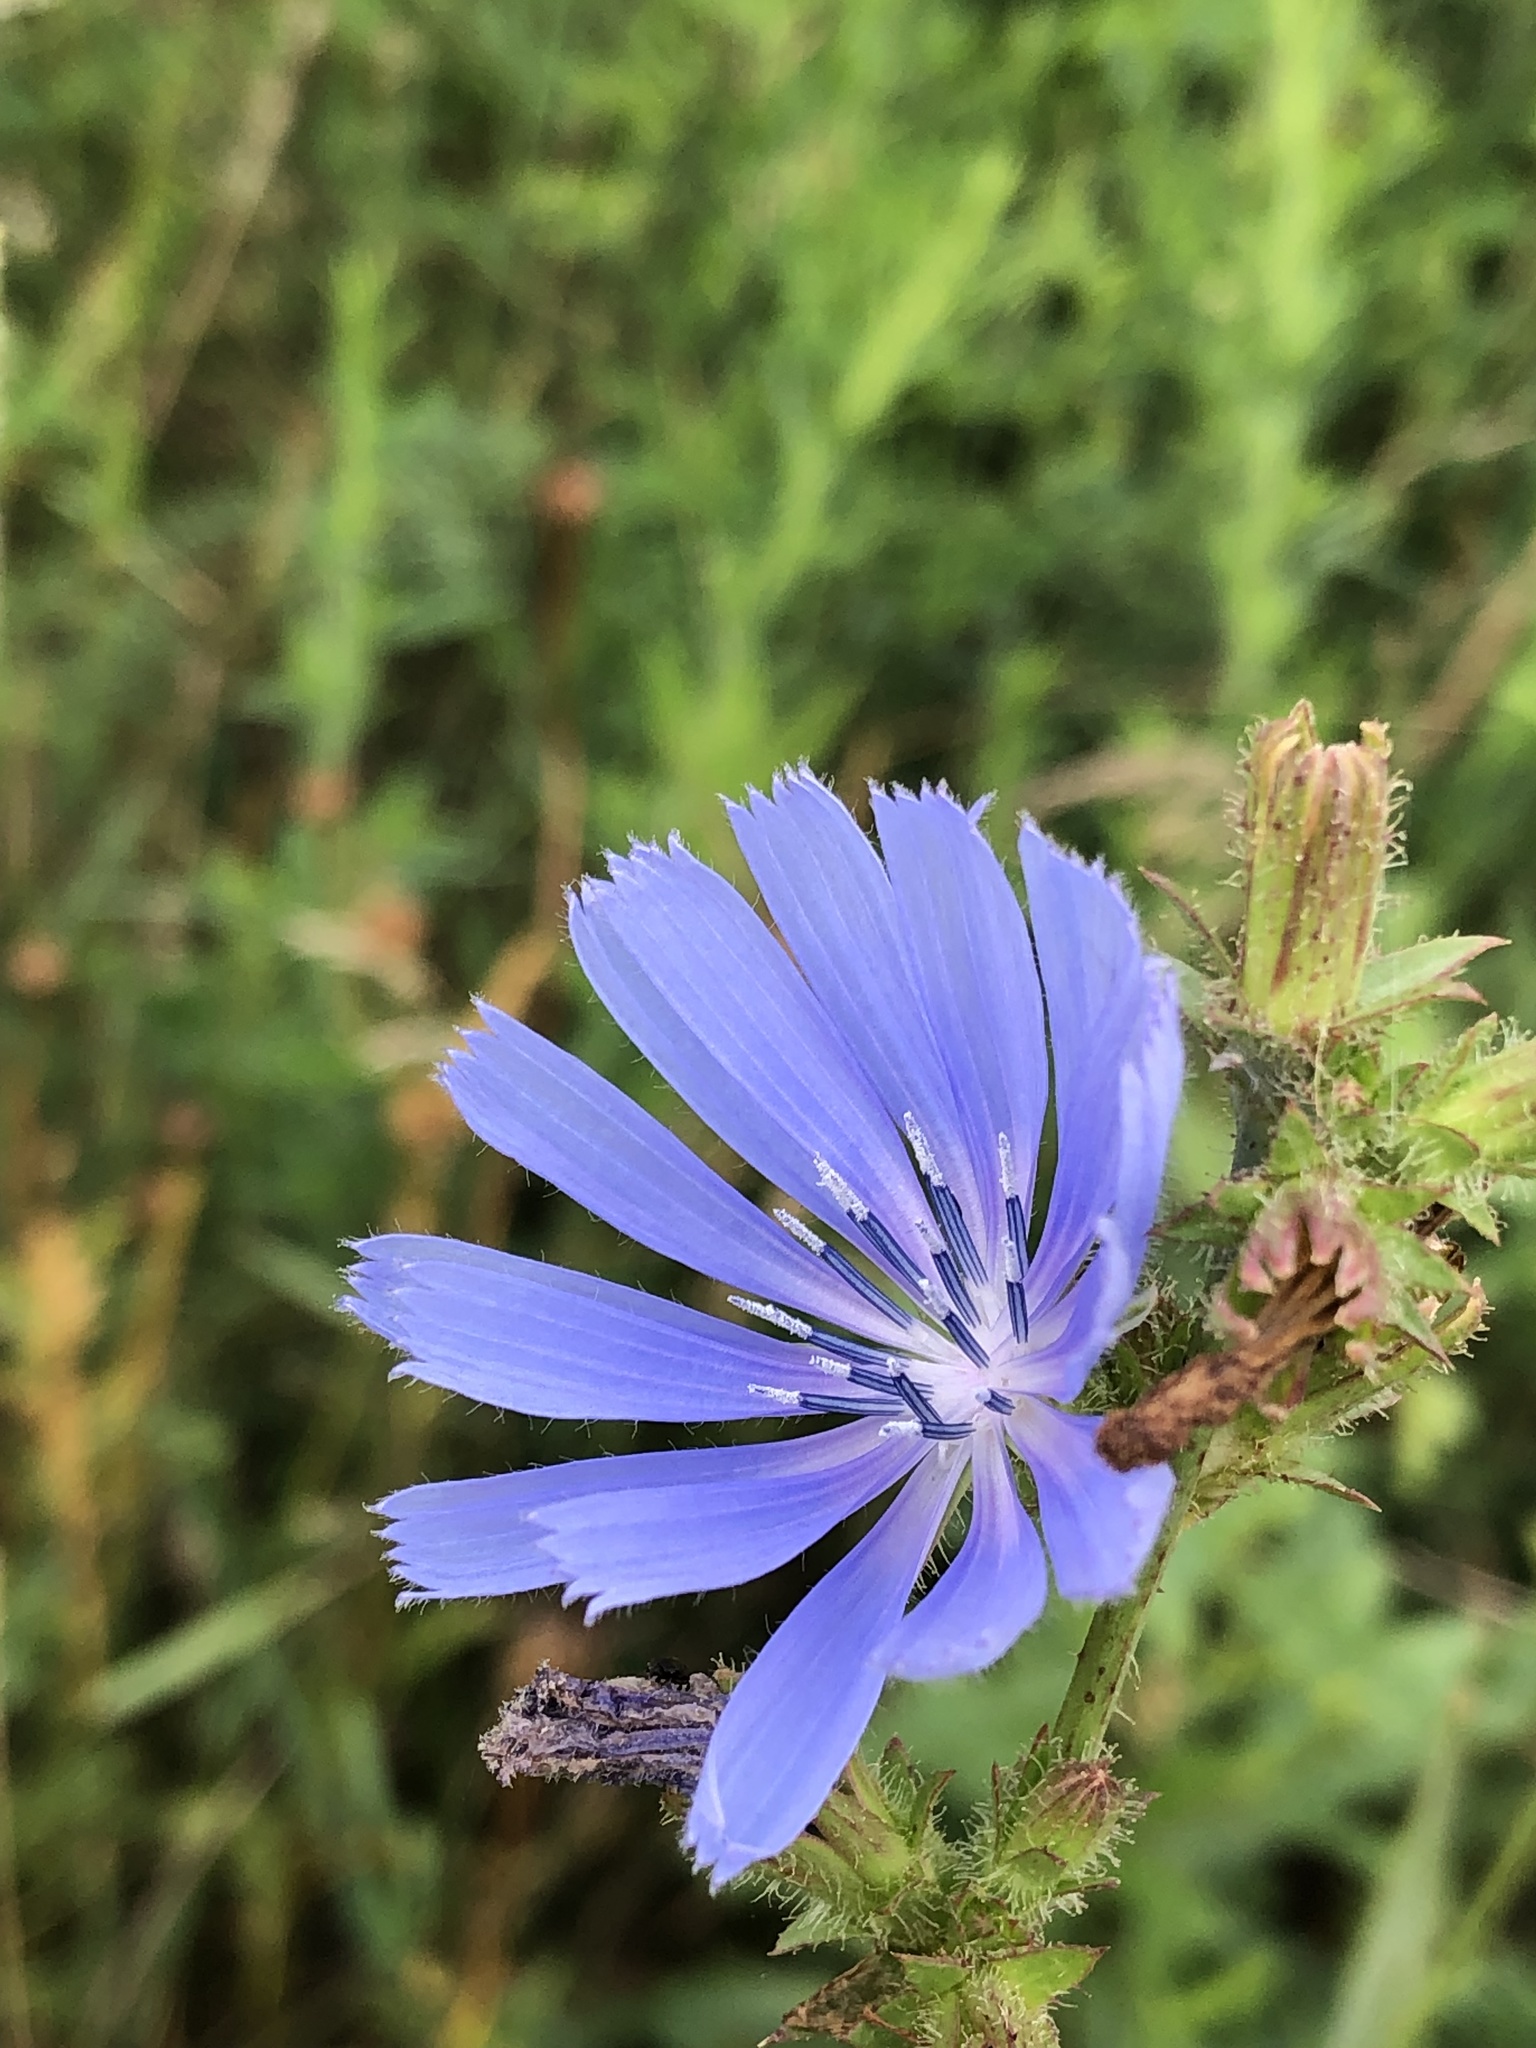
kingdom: Plantae
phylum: Tracheophyta
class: Magnoliopsida
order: Asterales
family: Asteraceae
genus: Cichorium
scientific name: Cichorium intybus
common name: Chicory
